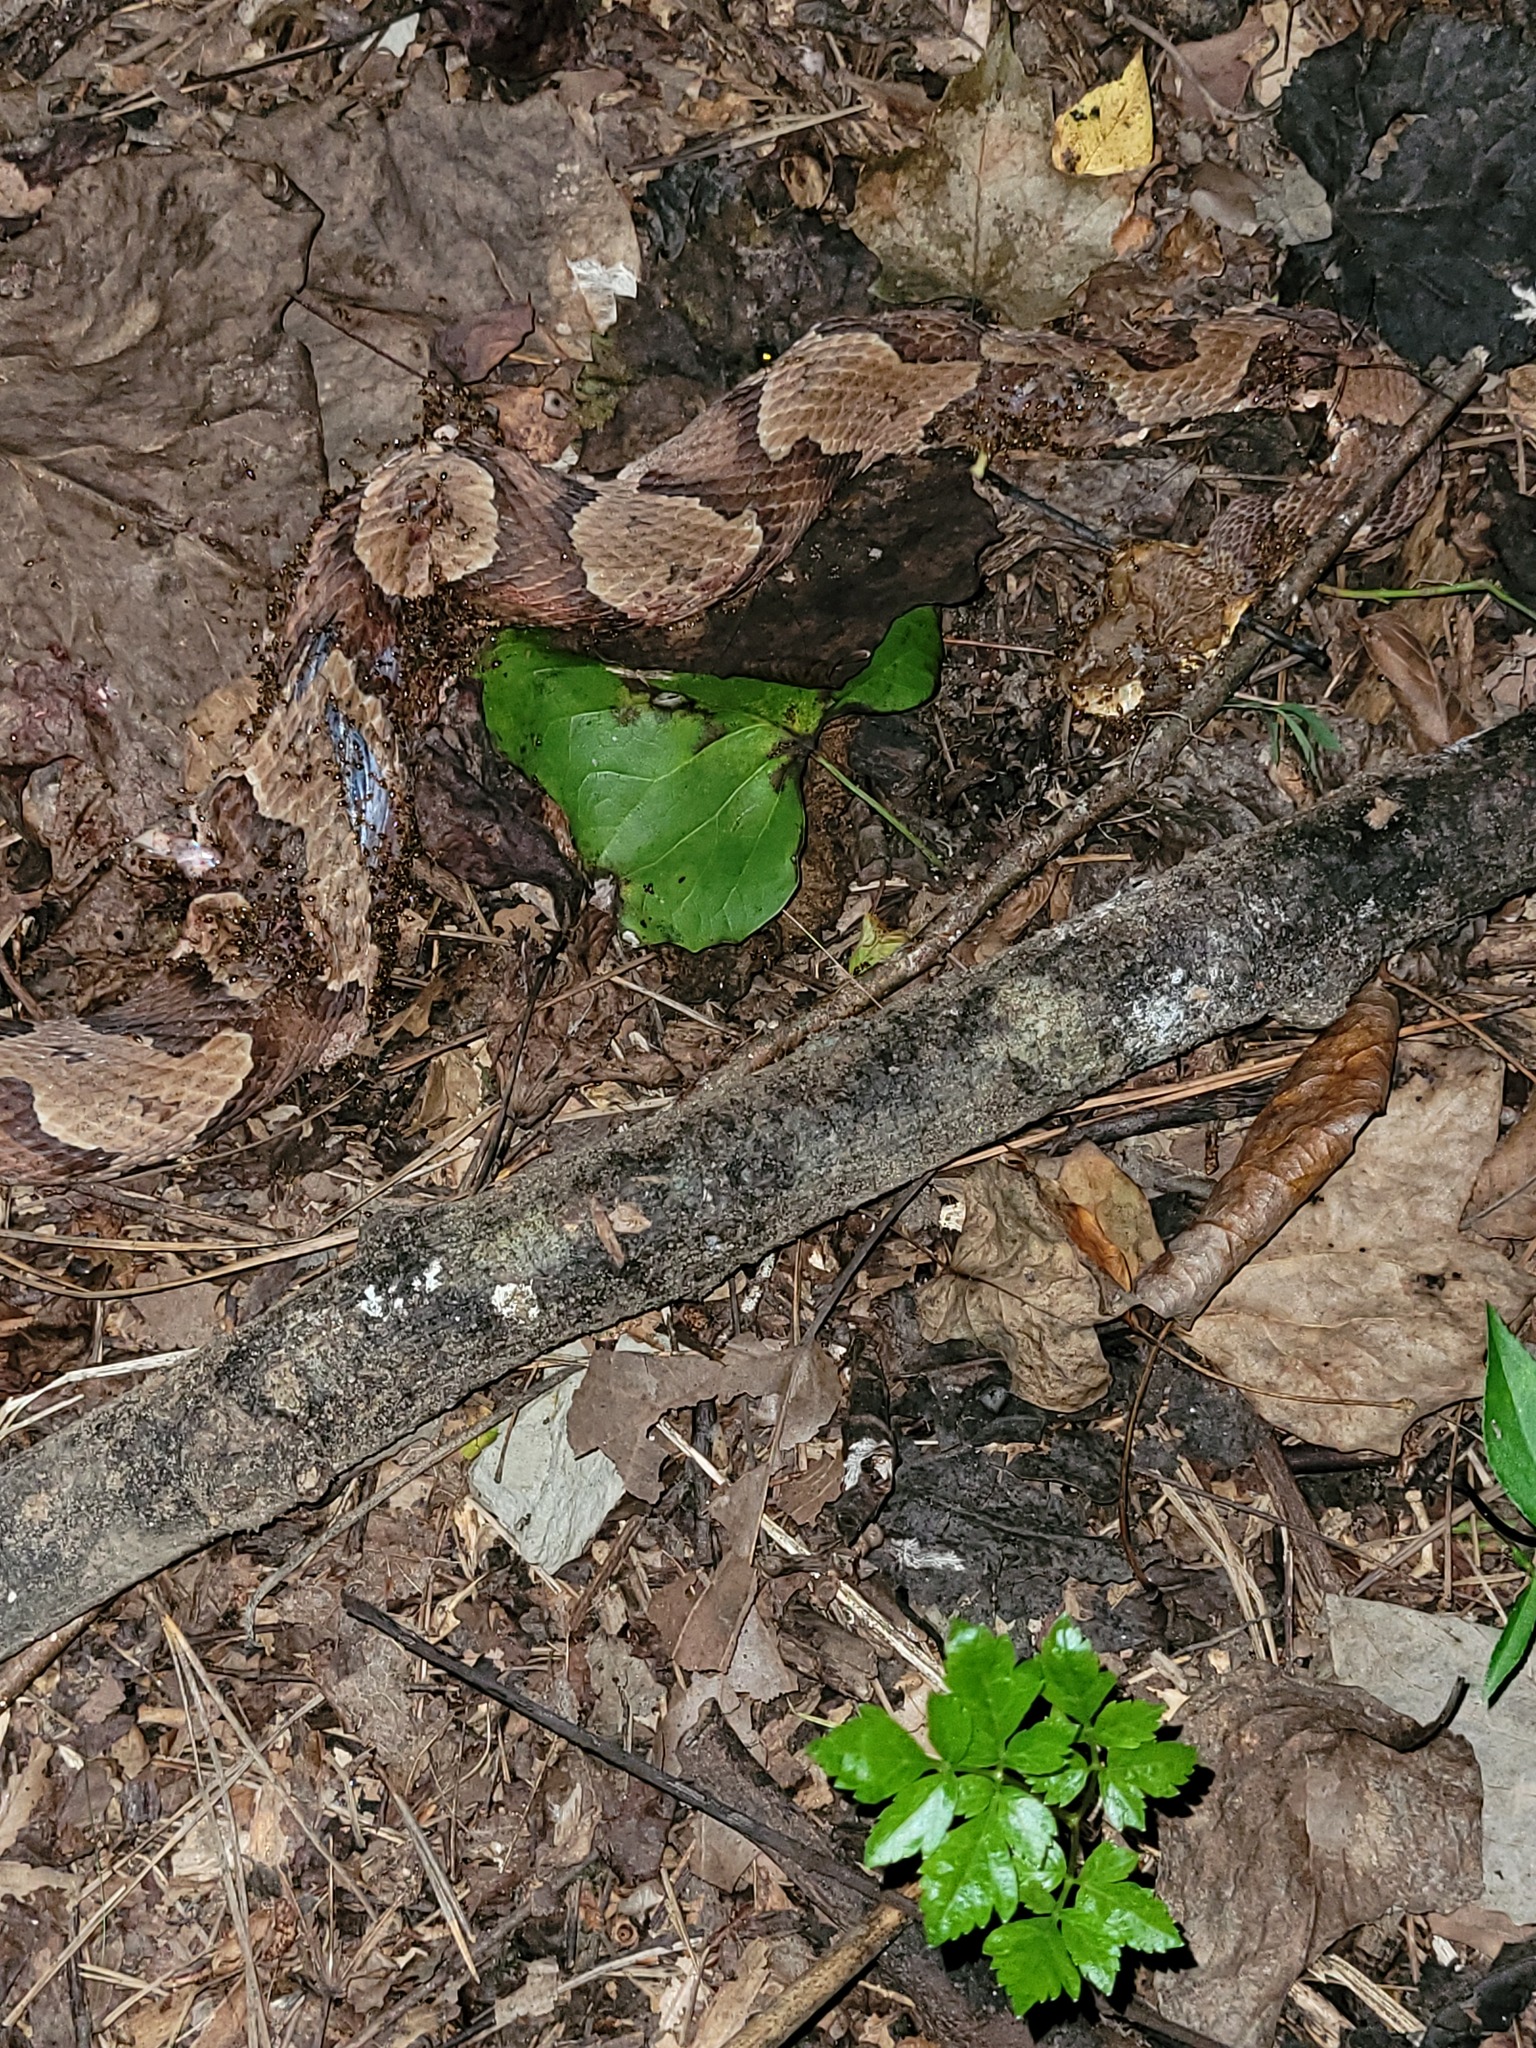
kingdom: Animalia
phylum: Chordata
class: Squamata
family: Viperidae
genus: Agkistrodon
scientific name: Agkistrodon contortrix
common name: Northern copperhead
